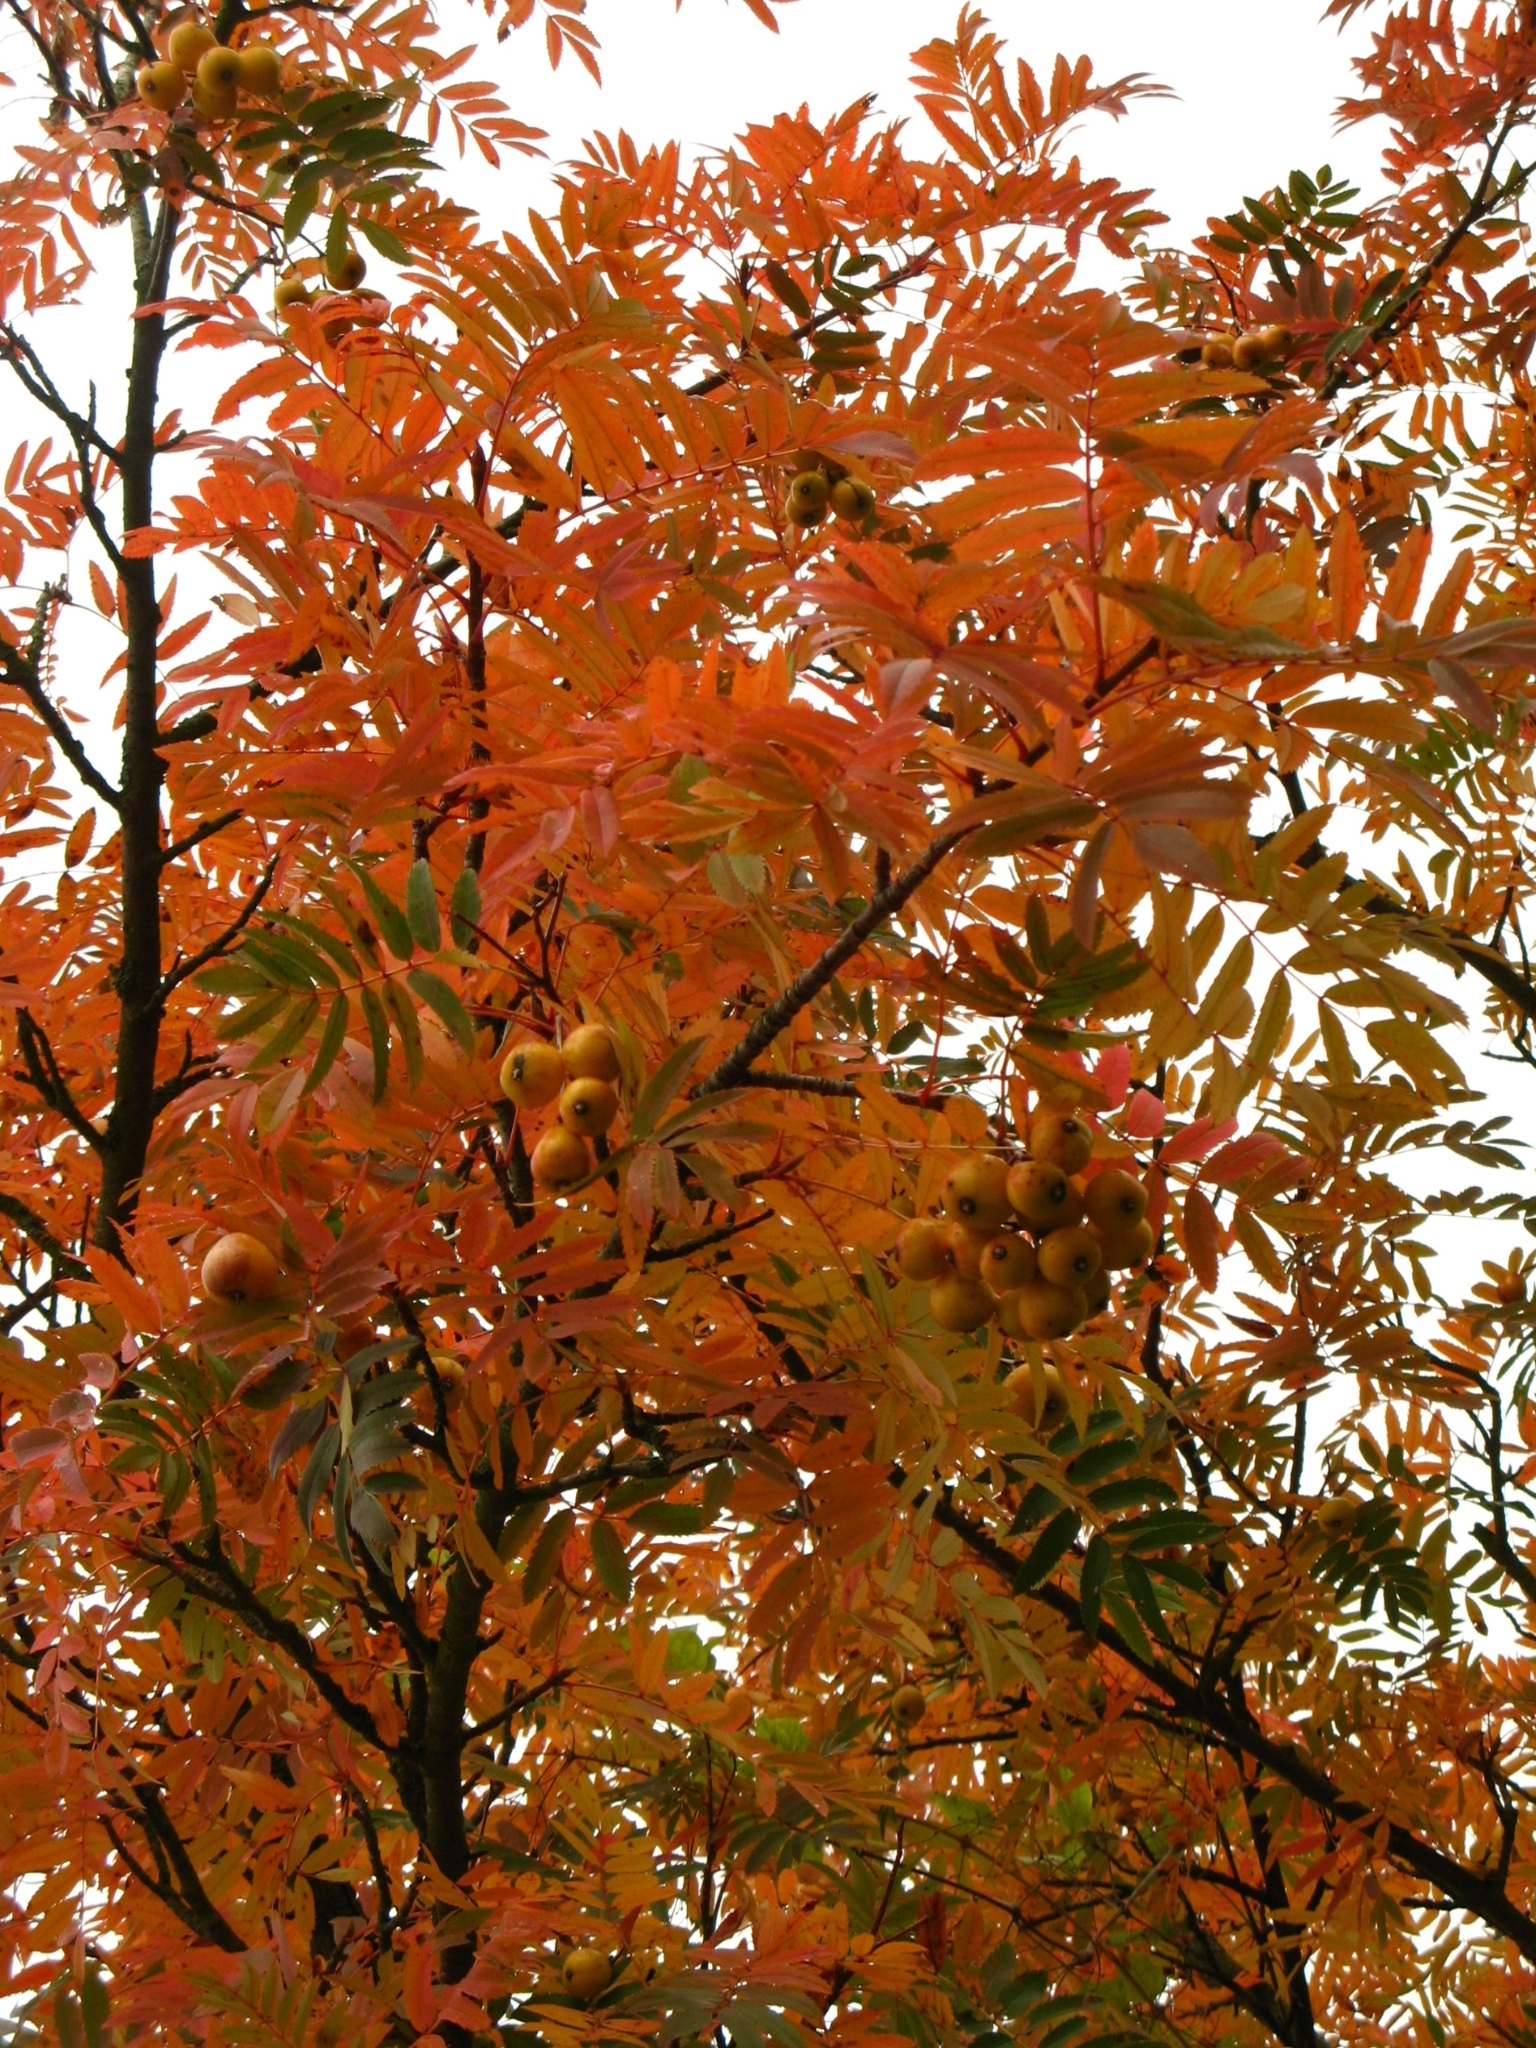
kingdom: Plantae
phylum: Tracheophyta
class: Magnoliopsida
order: Rosales
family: Rosaceae
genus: Cormus
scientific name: Cormus domestica
